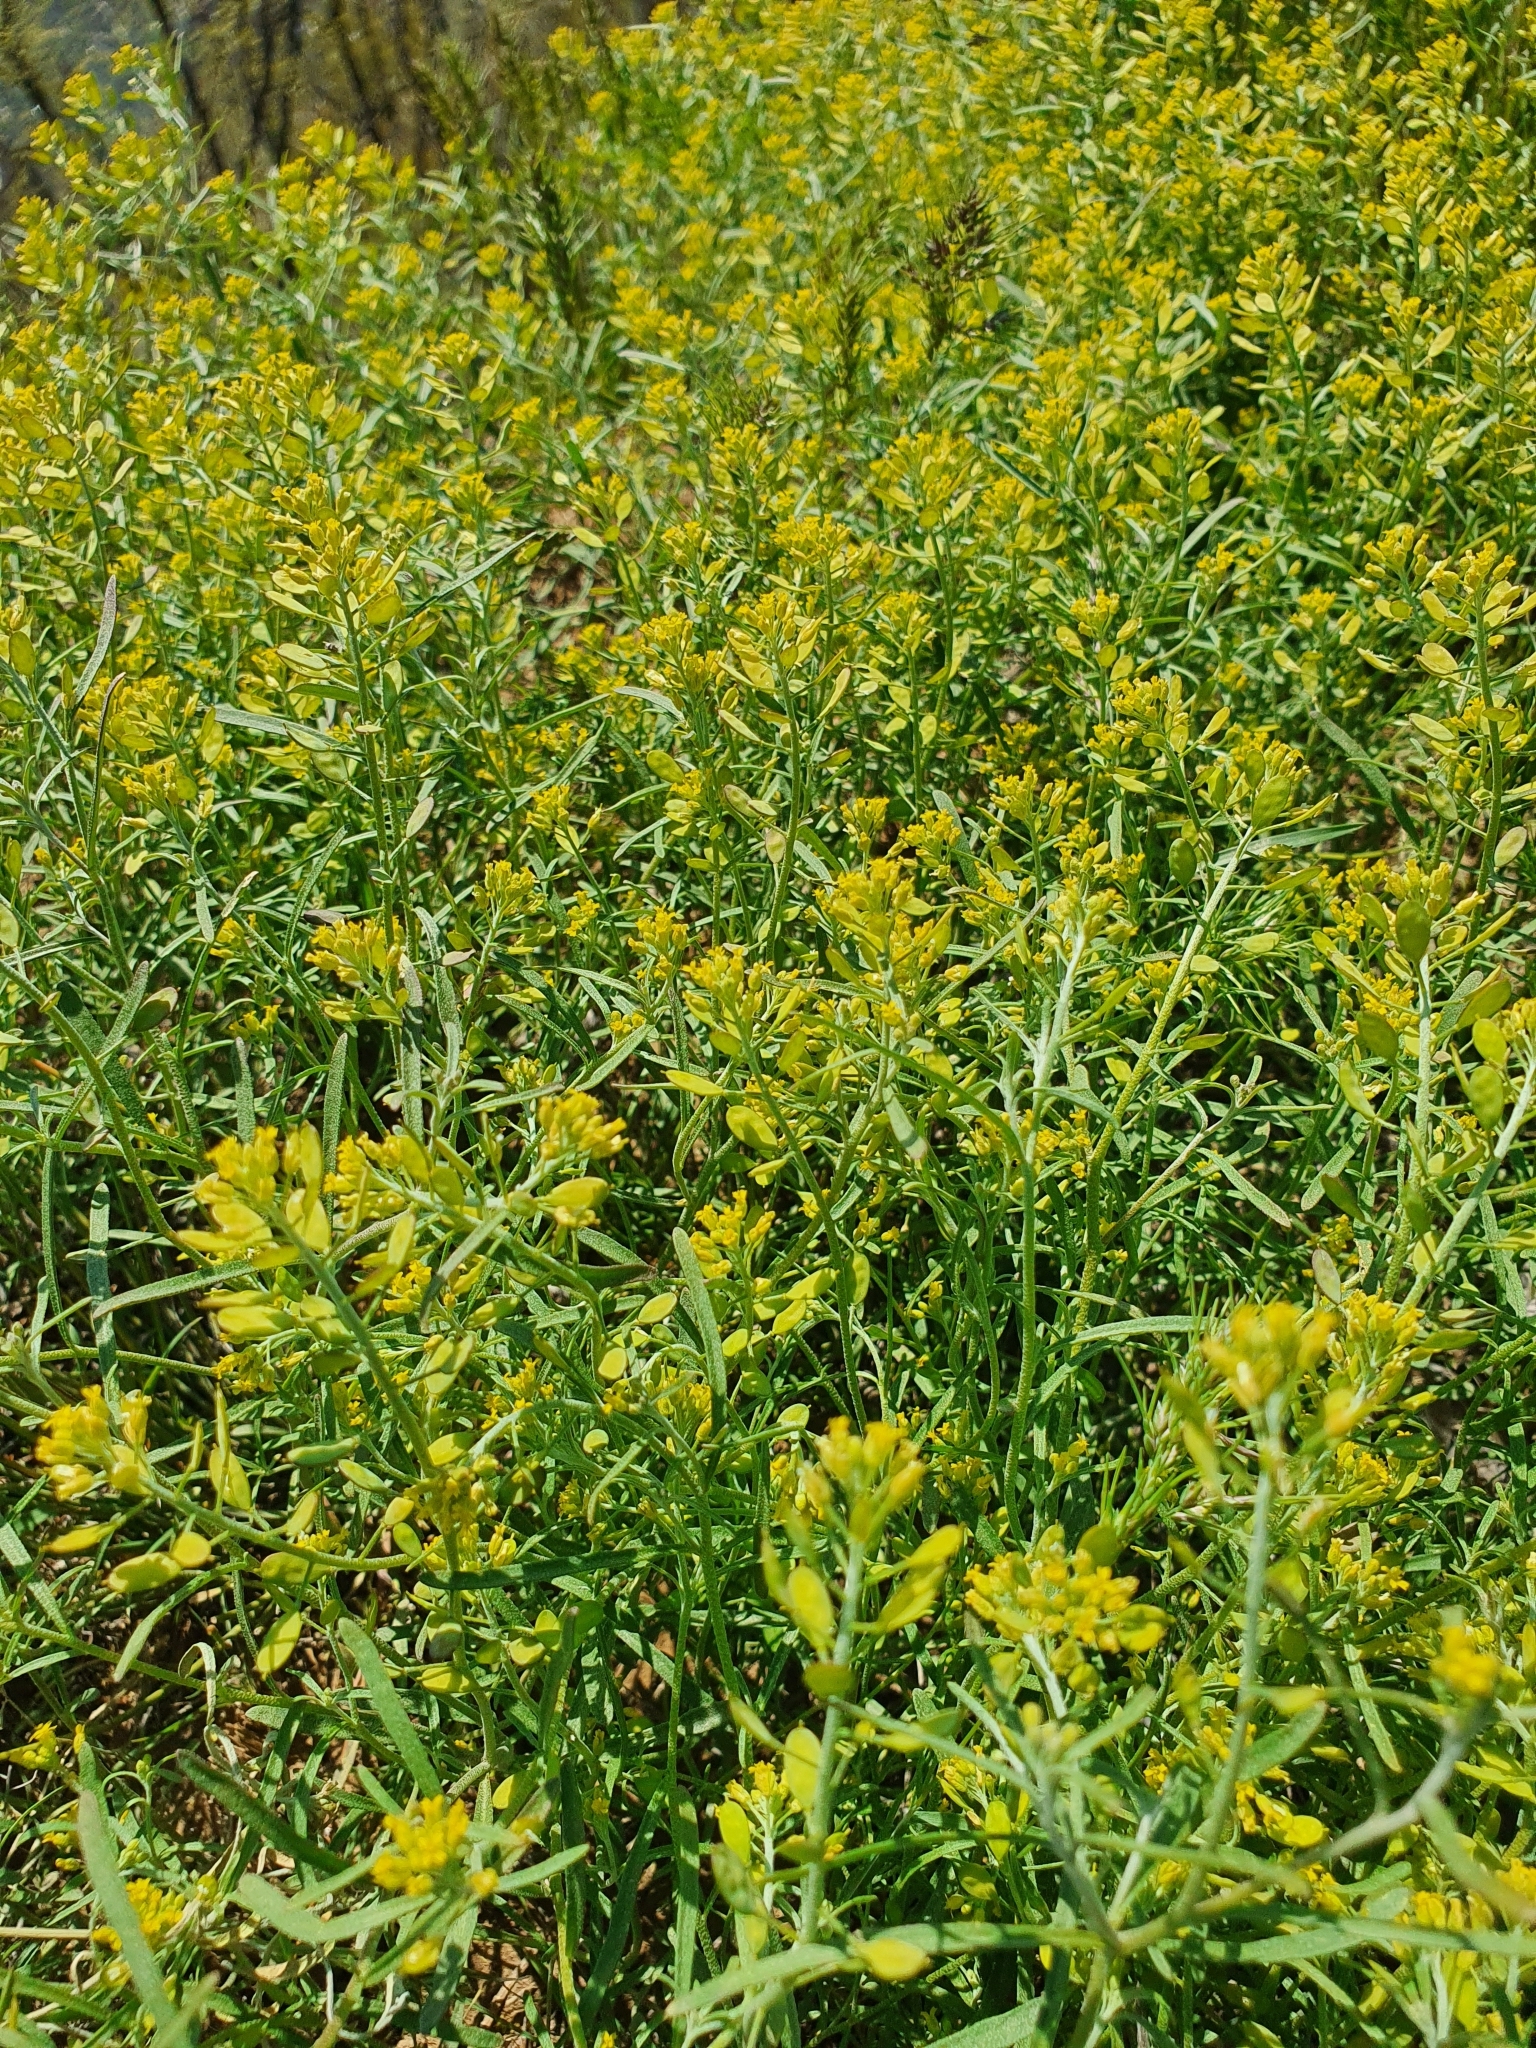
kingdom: Plantae
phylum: Tracheophyta
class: Magnoliopsida
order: Brassicales
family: Brassicaceae
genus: Meniocus
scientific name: Meniocus linifolius
